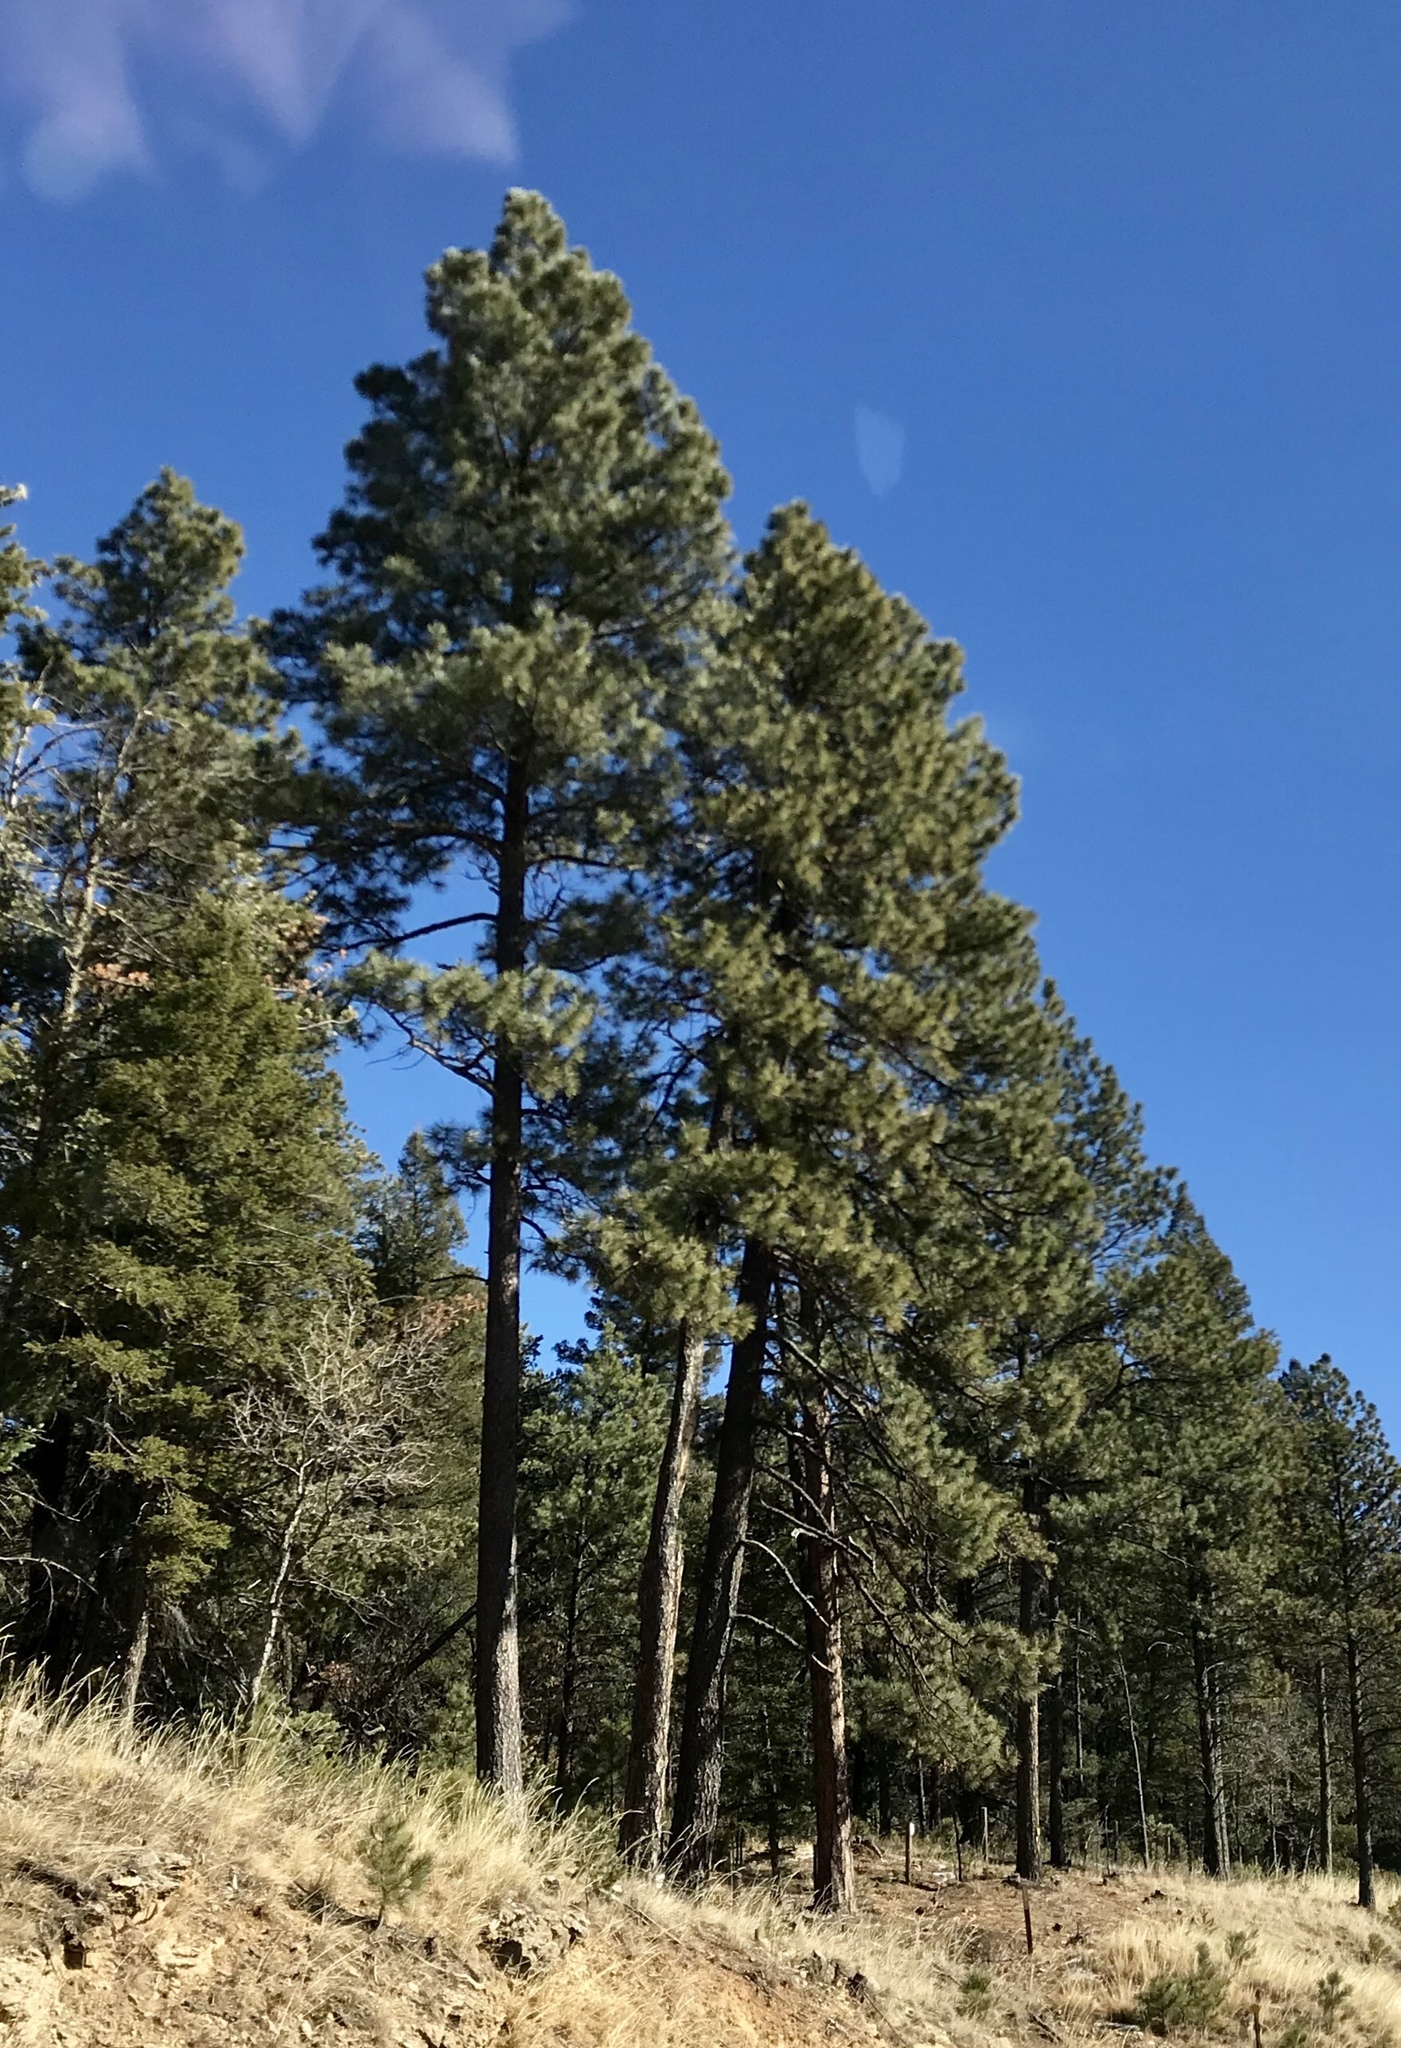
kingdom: Plantae
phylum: Tracheophyta
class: Pinopsida
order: Pinales
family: Pinaceae
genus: Pinus
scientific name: Pinus ponderosa
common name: Western yellow-pine
